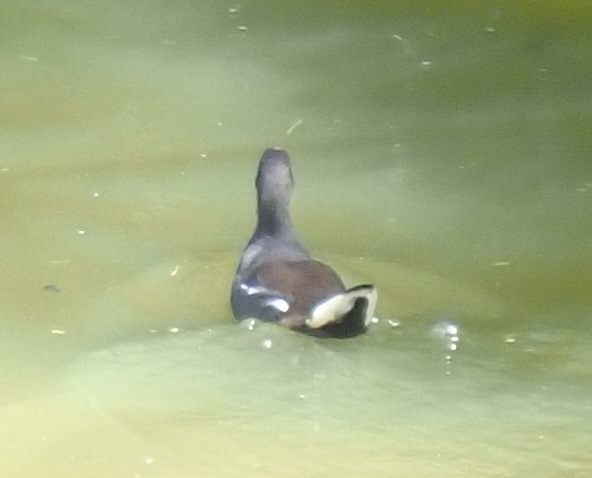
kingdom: Animalia
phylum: Chordata
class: Aves
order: Gruiformes
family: Rallidae
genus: Gallinula
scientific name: Gallinula chloropus
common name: Common moorhen
